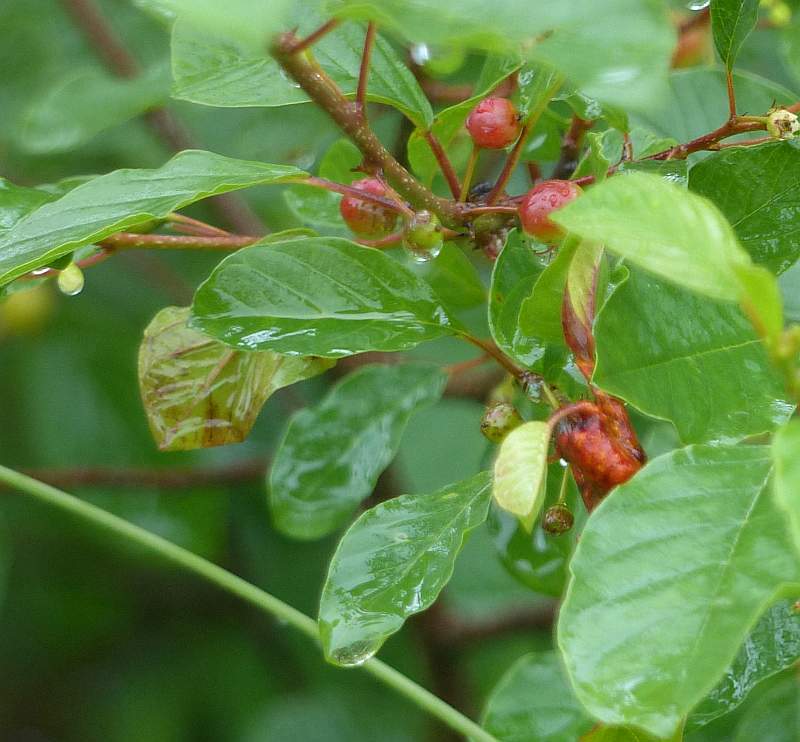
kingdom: Plantae
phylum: Tracheophyta
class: Magnoliopsida
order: Rosales
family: Rhamnaceae
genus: Frangula
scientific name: Frangula alnus
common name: Alder buckthorn
